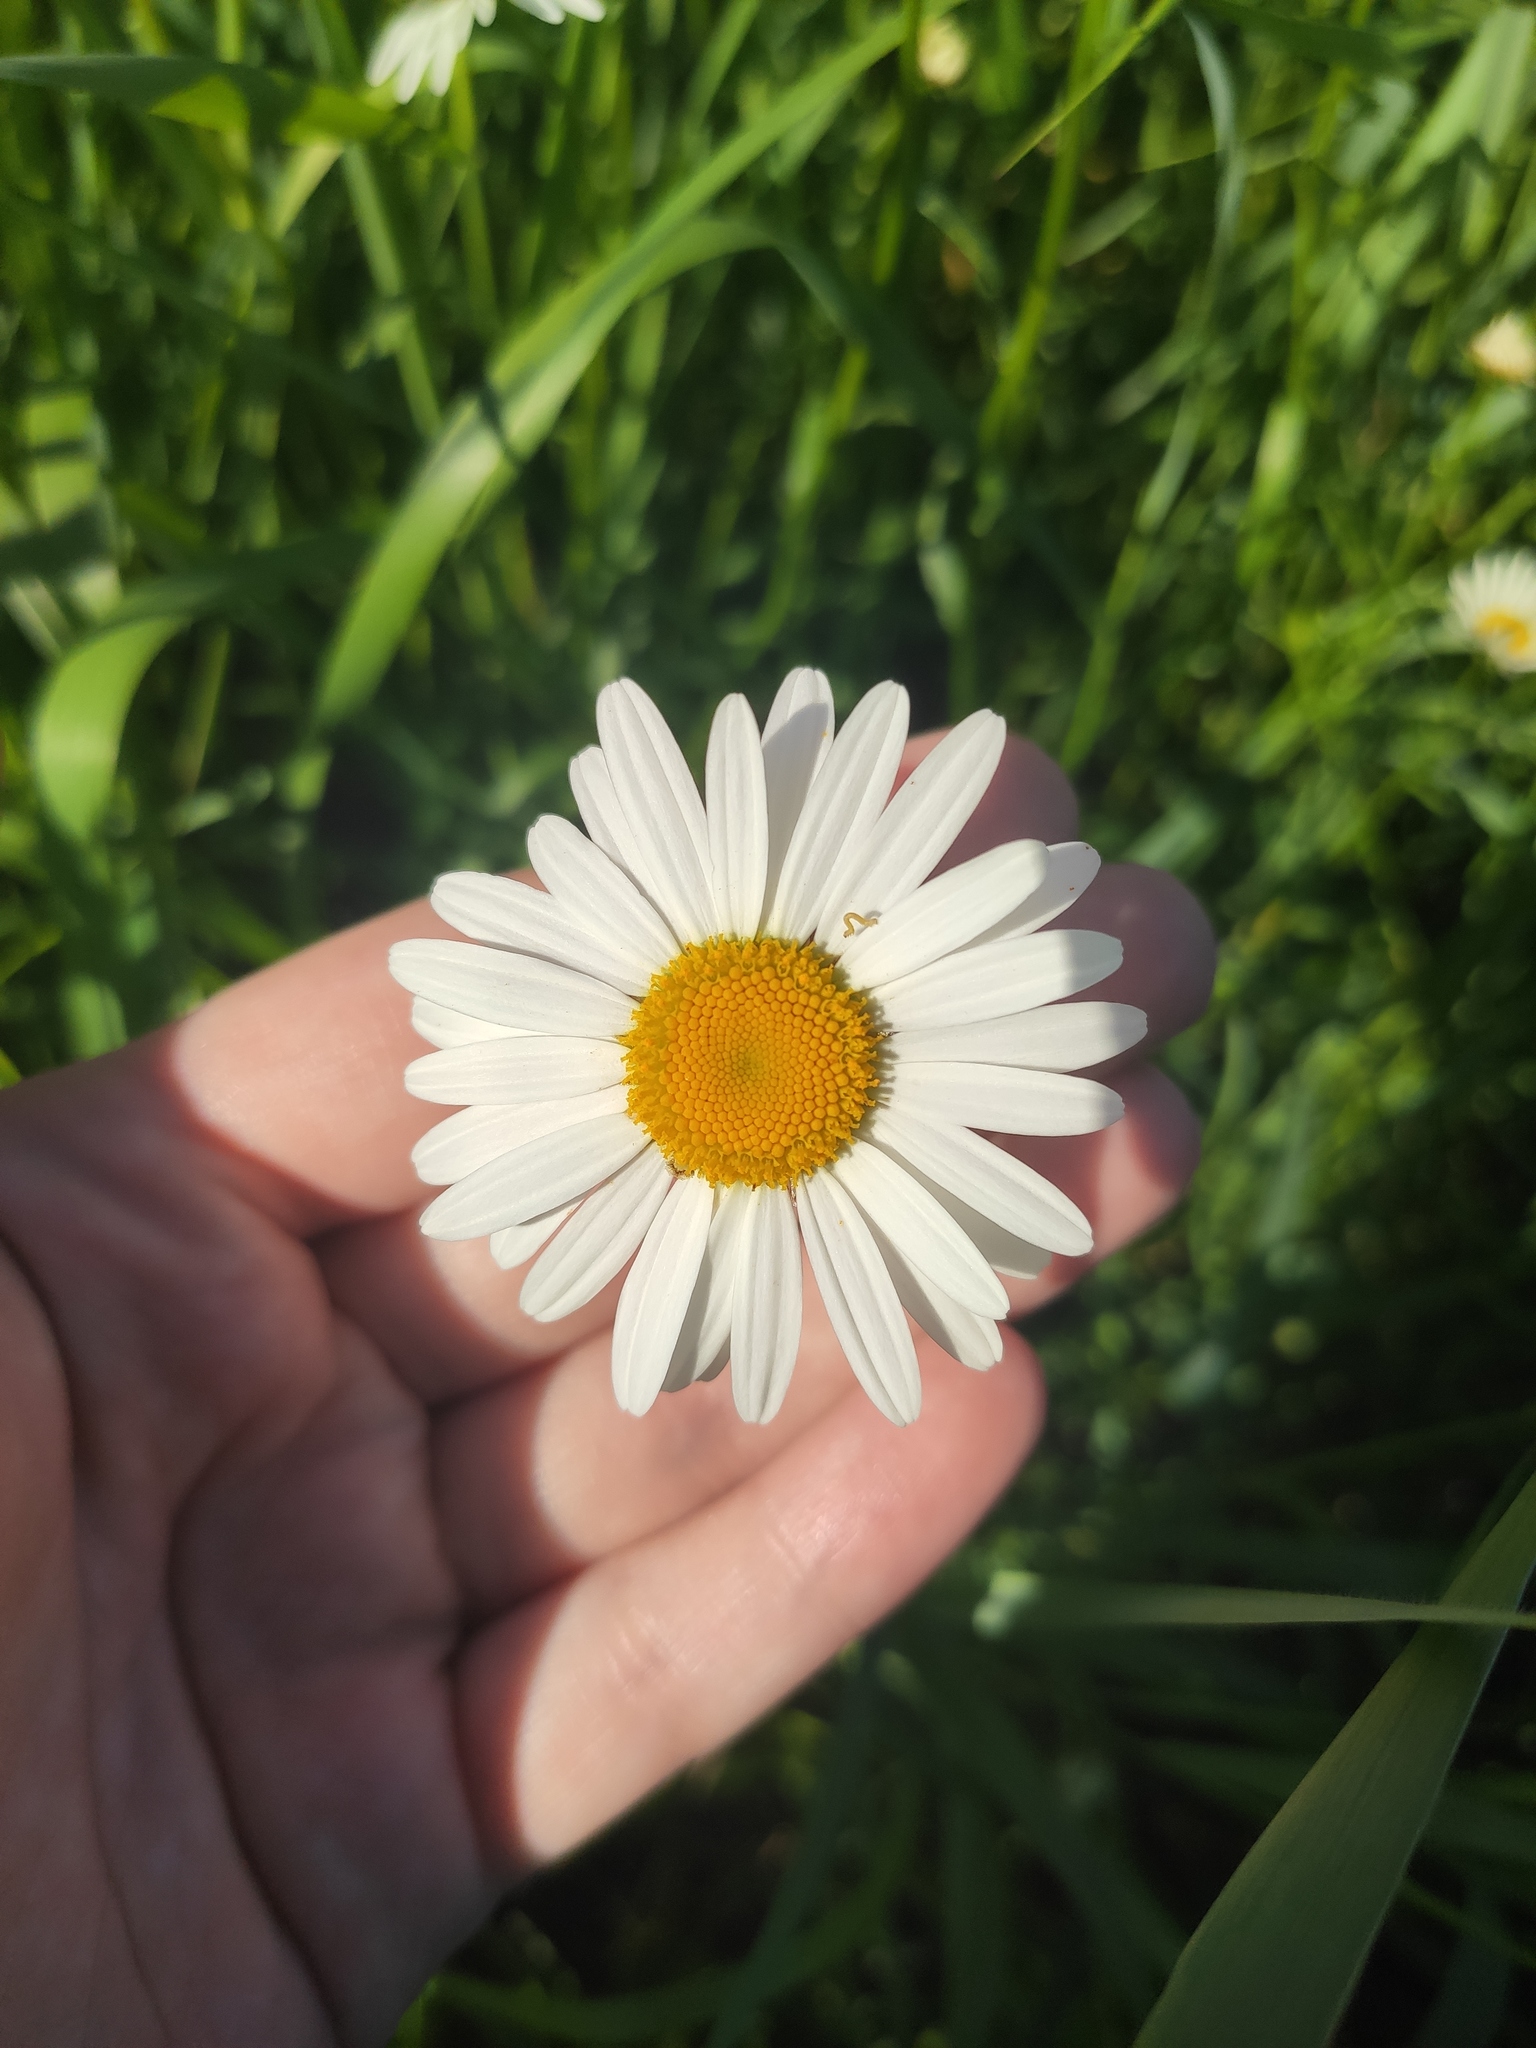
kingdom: Plantae
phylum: Tracheophyta
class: Magnoliopsida
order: Asterales
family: Asteraceae
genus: Leucanthemum
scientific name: Leucanthemum vulgare
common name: Oxeye daisy
